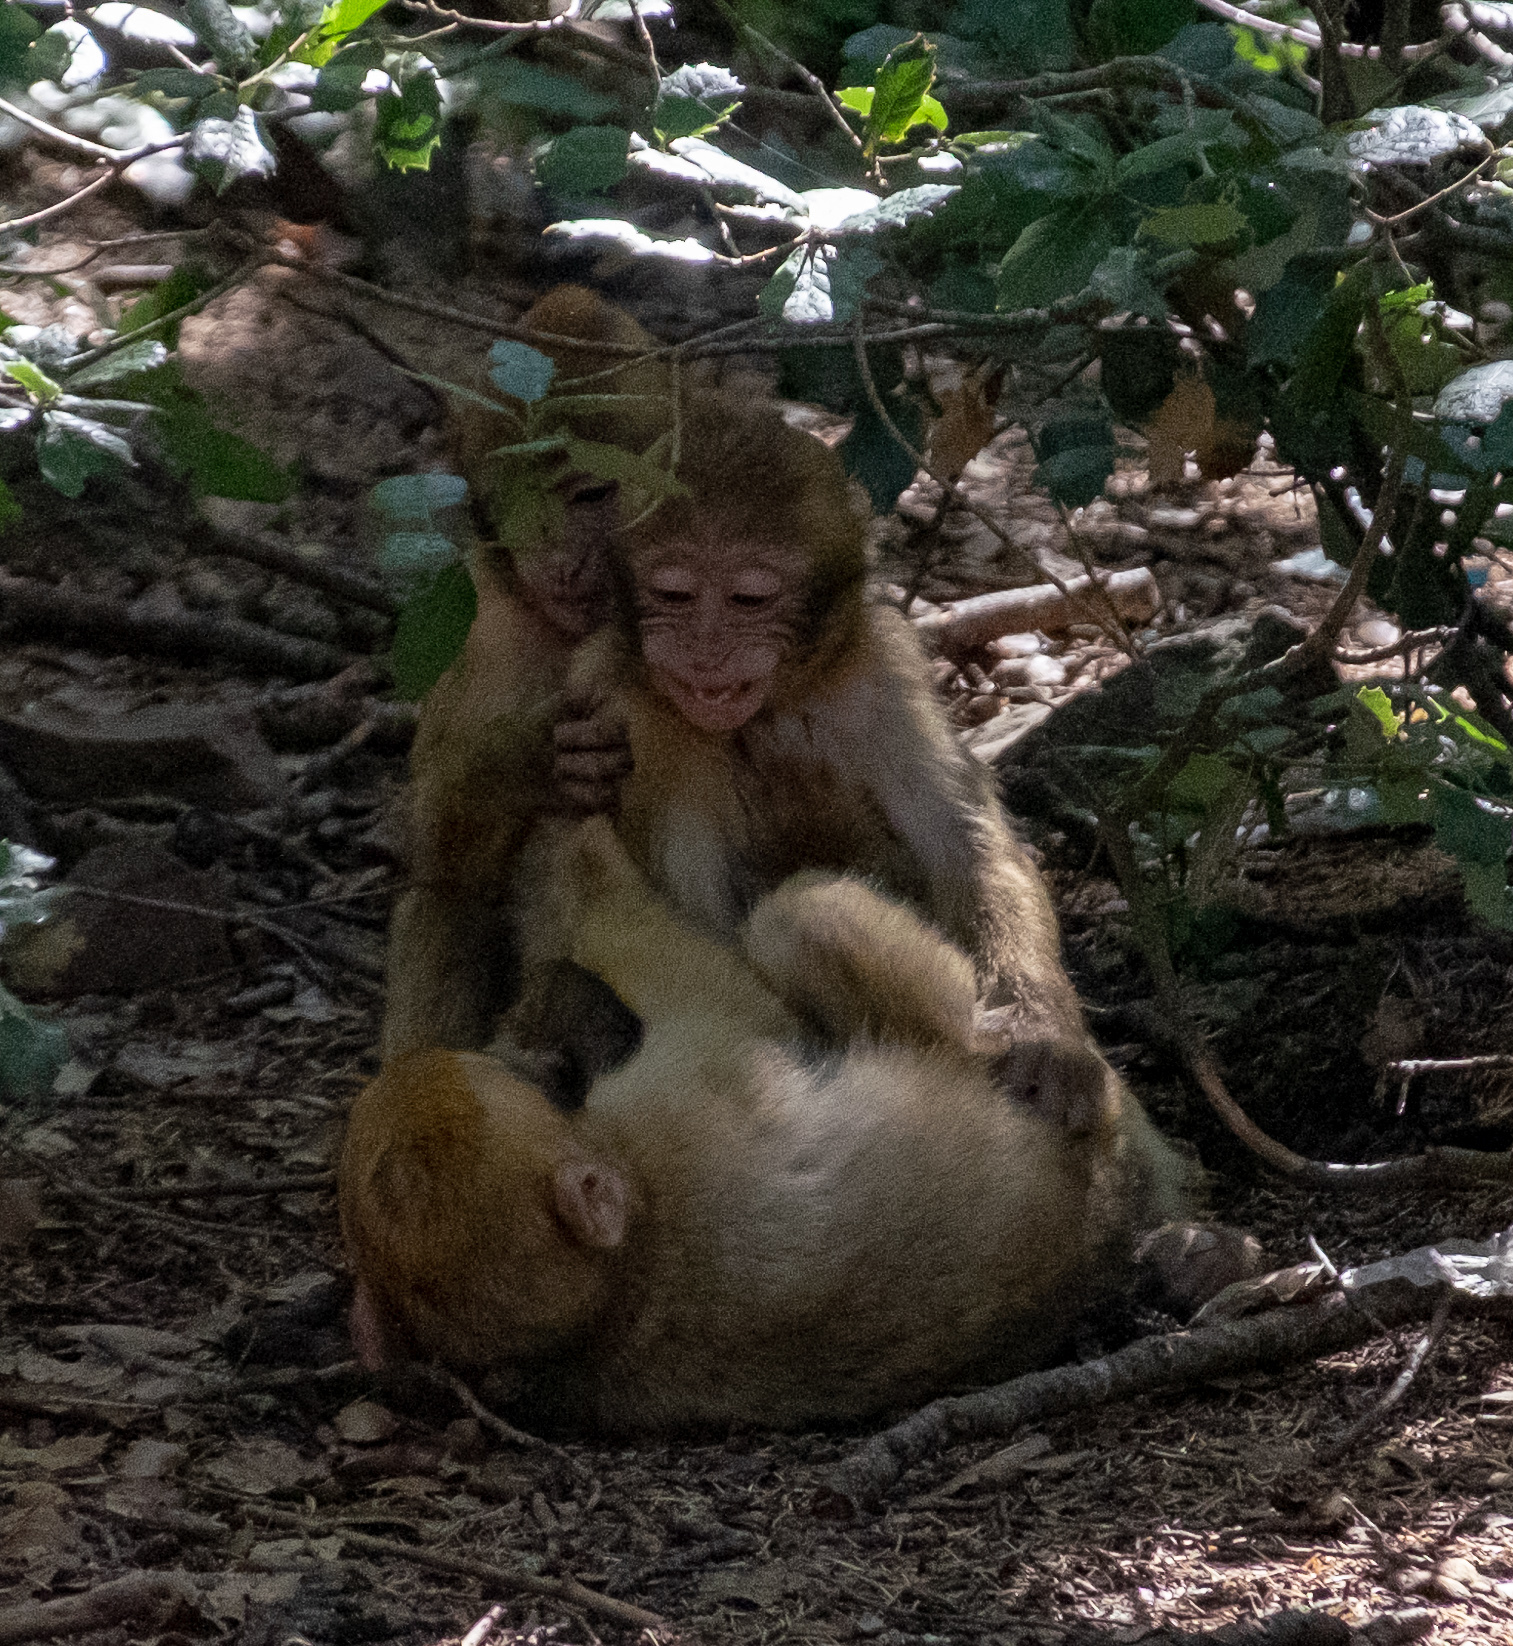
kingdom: Animalia
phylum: Chordata
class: Mammalia
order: Primates
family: Cercopithecidae
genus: Macaca
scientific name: Macaca sylvanus
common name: Barbary macaque
